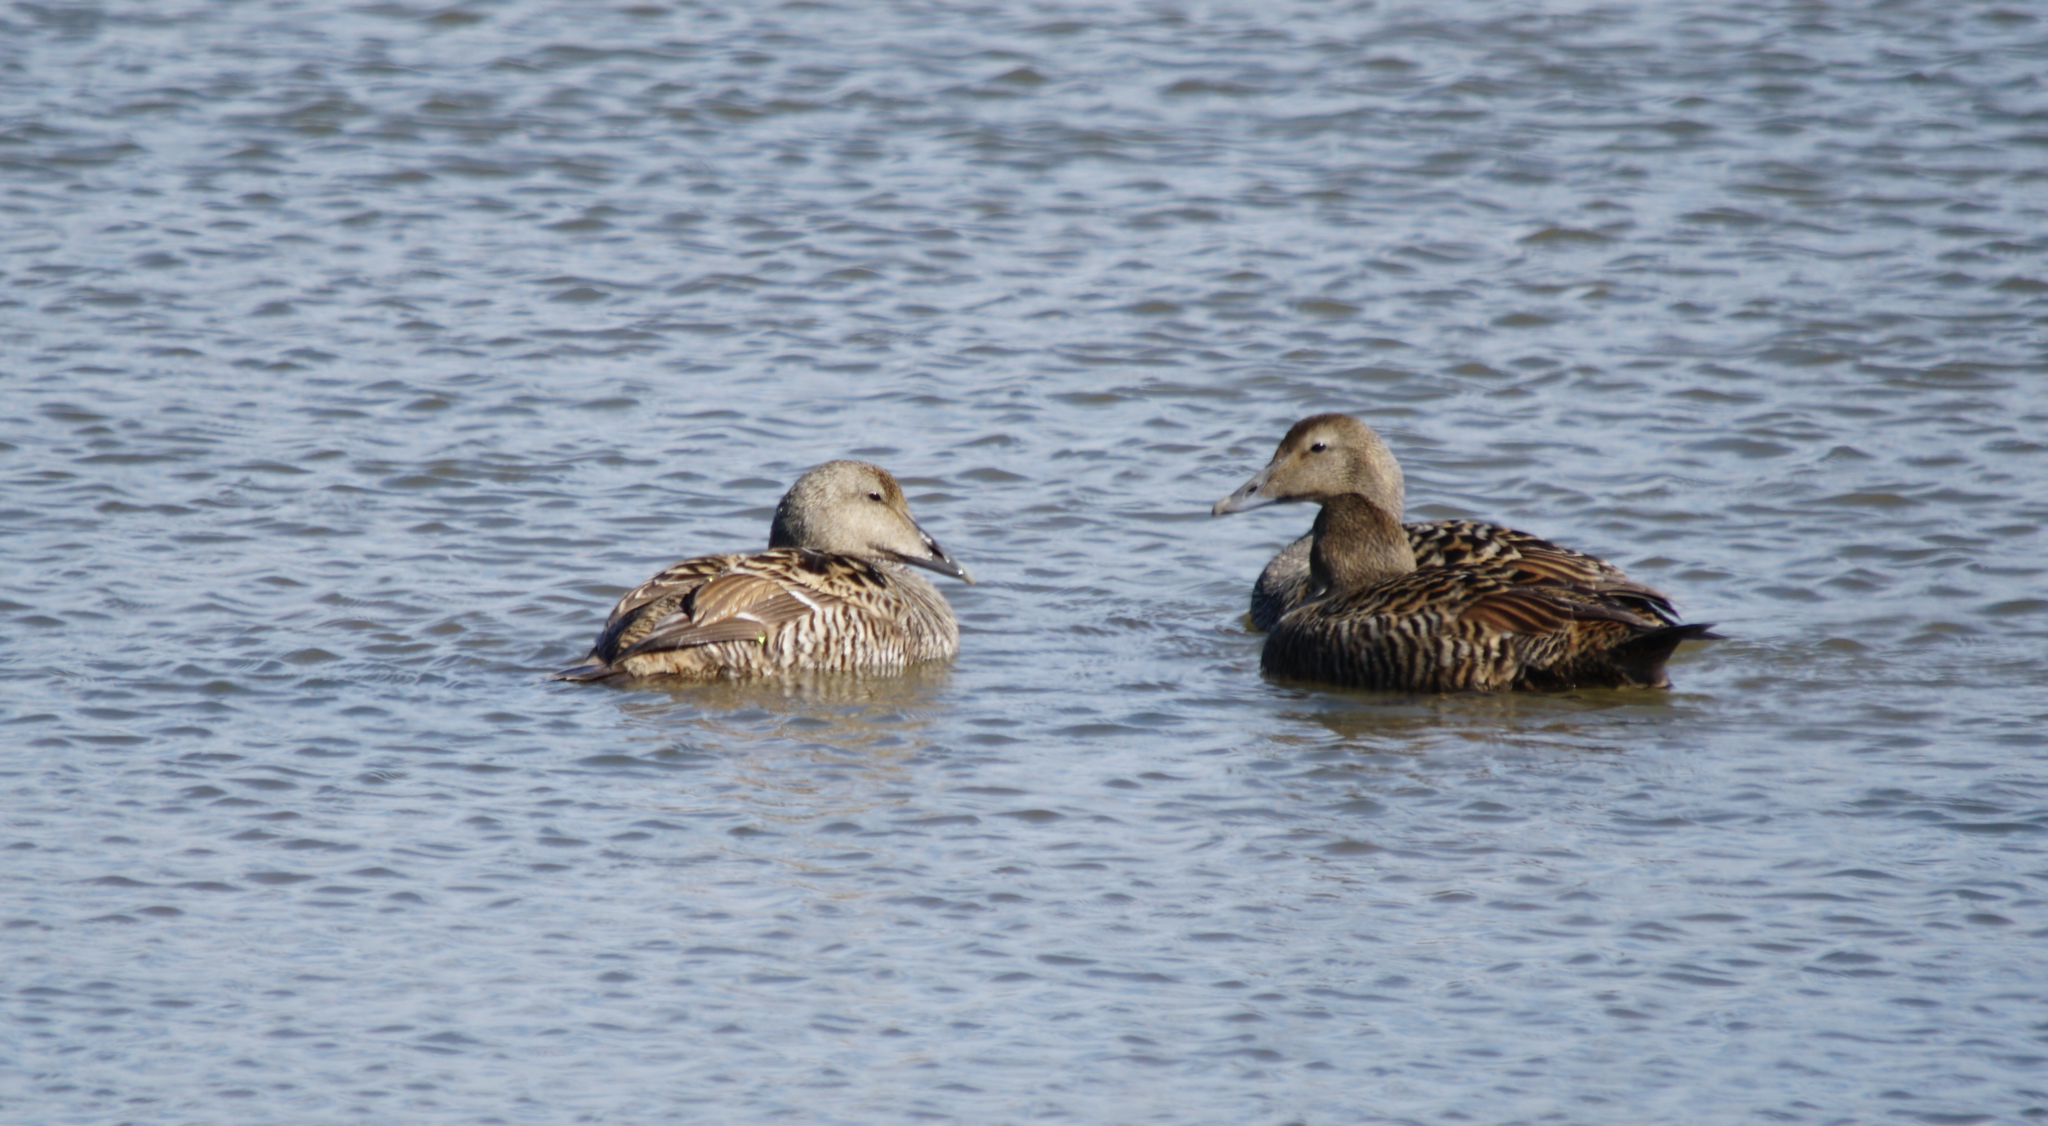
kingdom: Animalia
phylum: Chordata
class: Aves
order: Anseriformes
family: Anatidae
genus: Somateria
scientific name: Somateria mollissima
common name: Common eider
